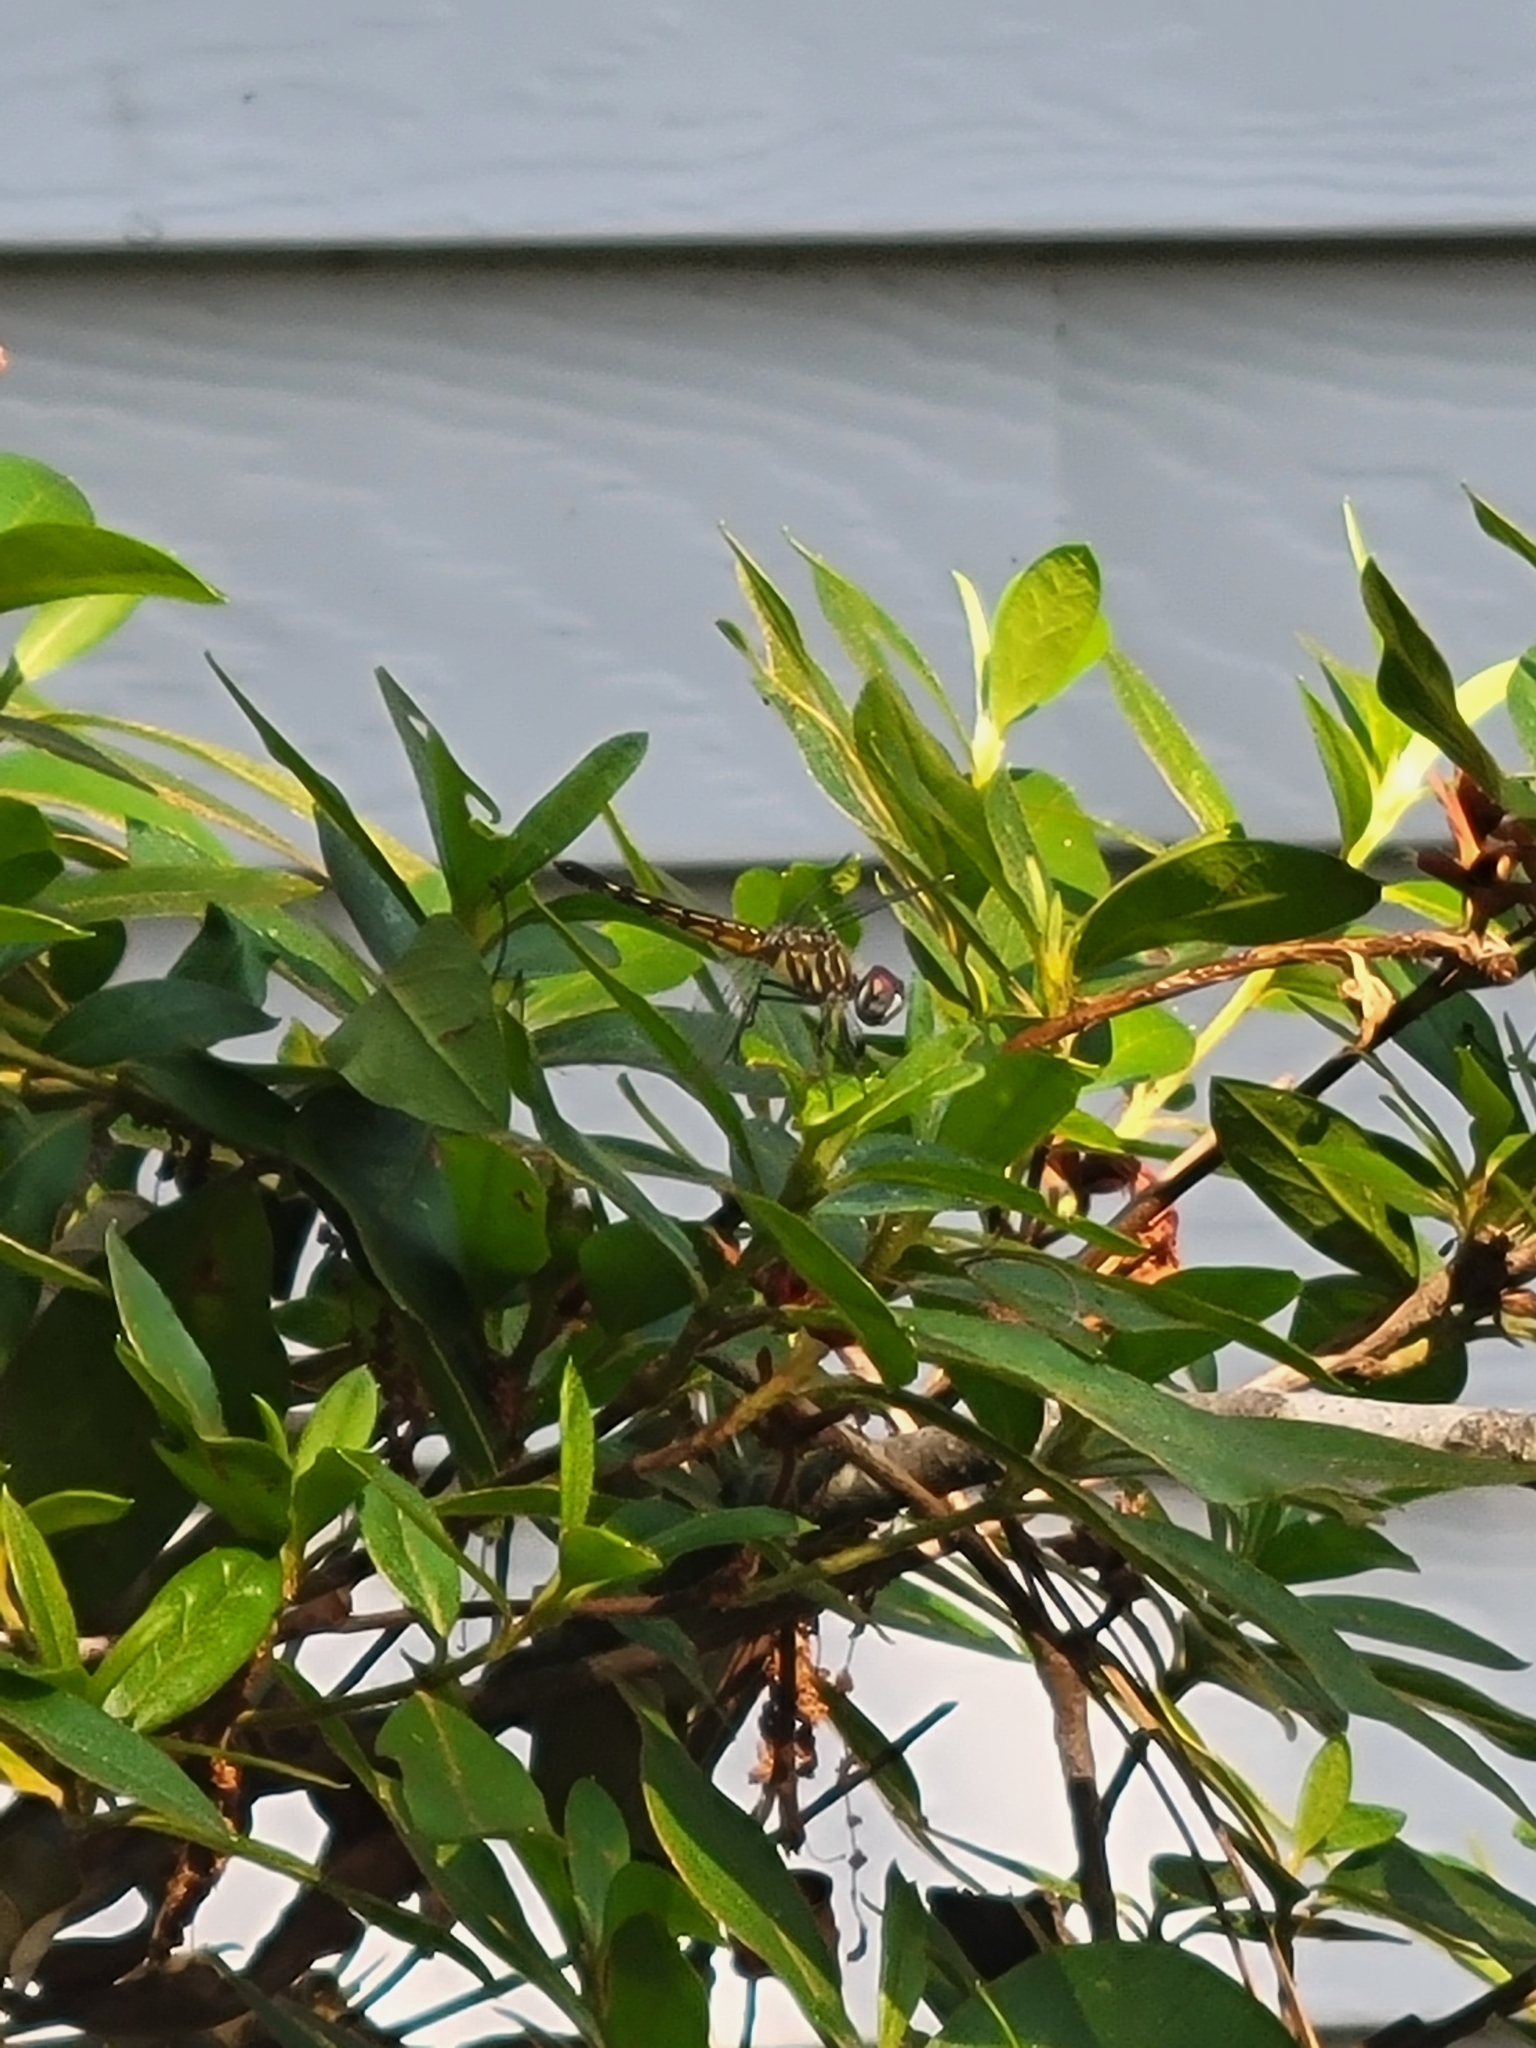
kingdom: Animalia
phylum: Arthropoda
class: Insecta
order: Odonata
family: Libellulidae
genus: Pachydiplax
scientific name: Pachydiplax longipennis
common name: Blue dasher
